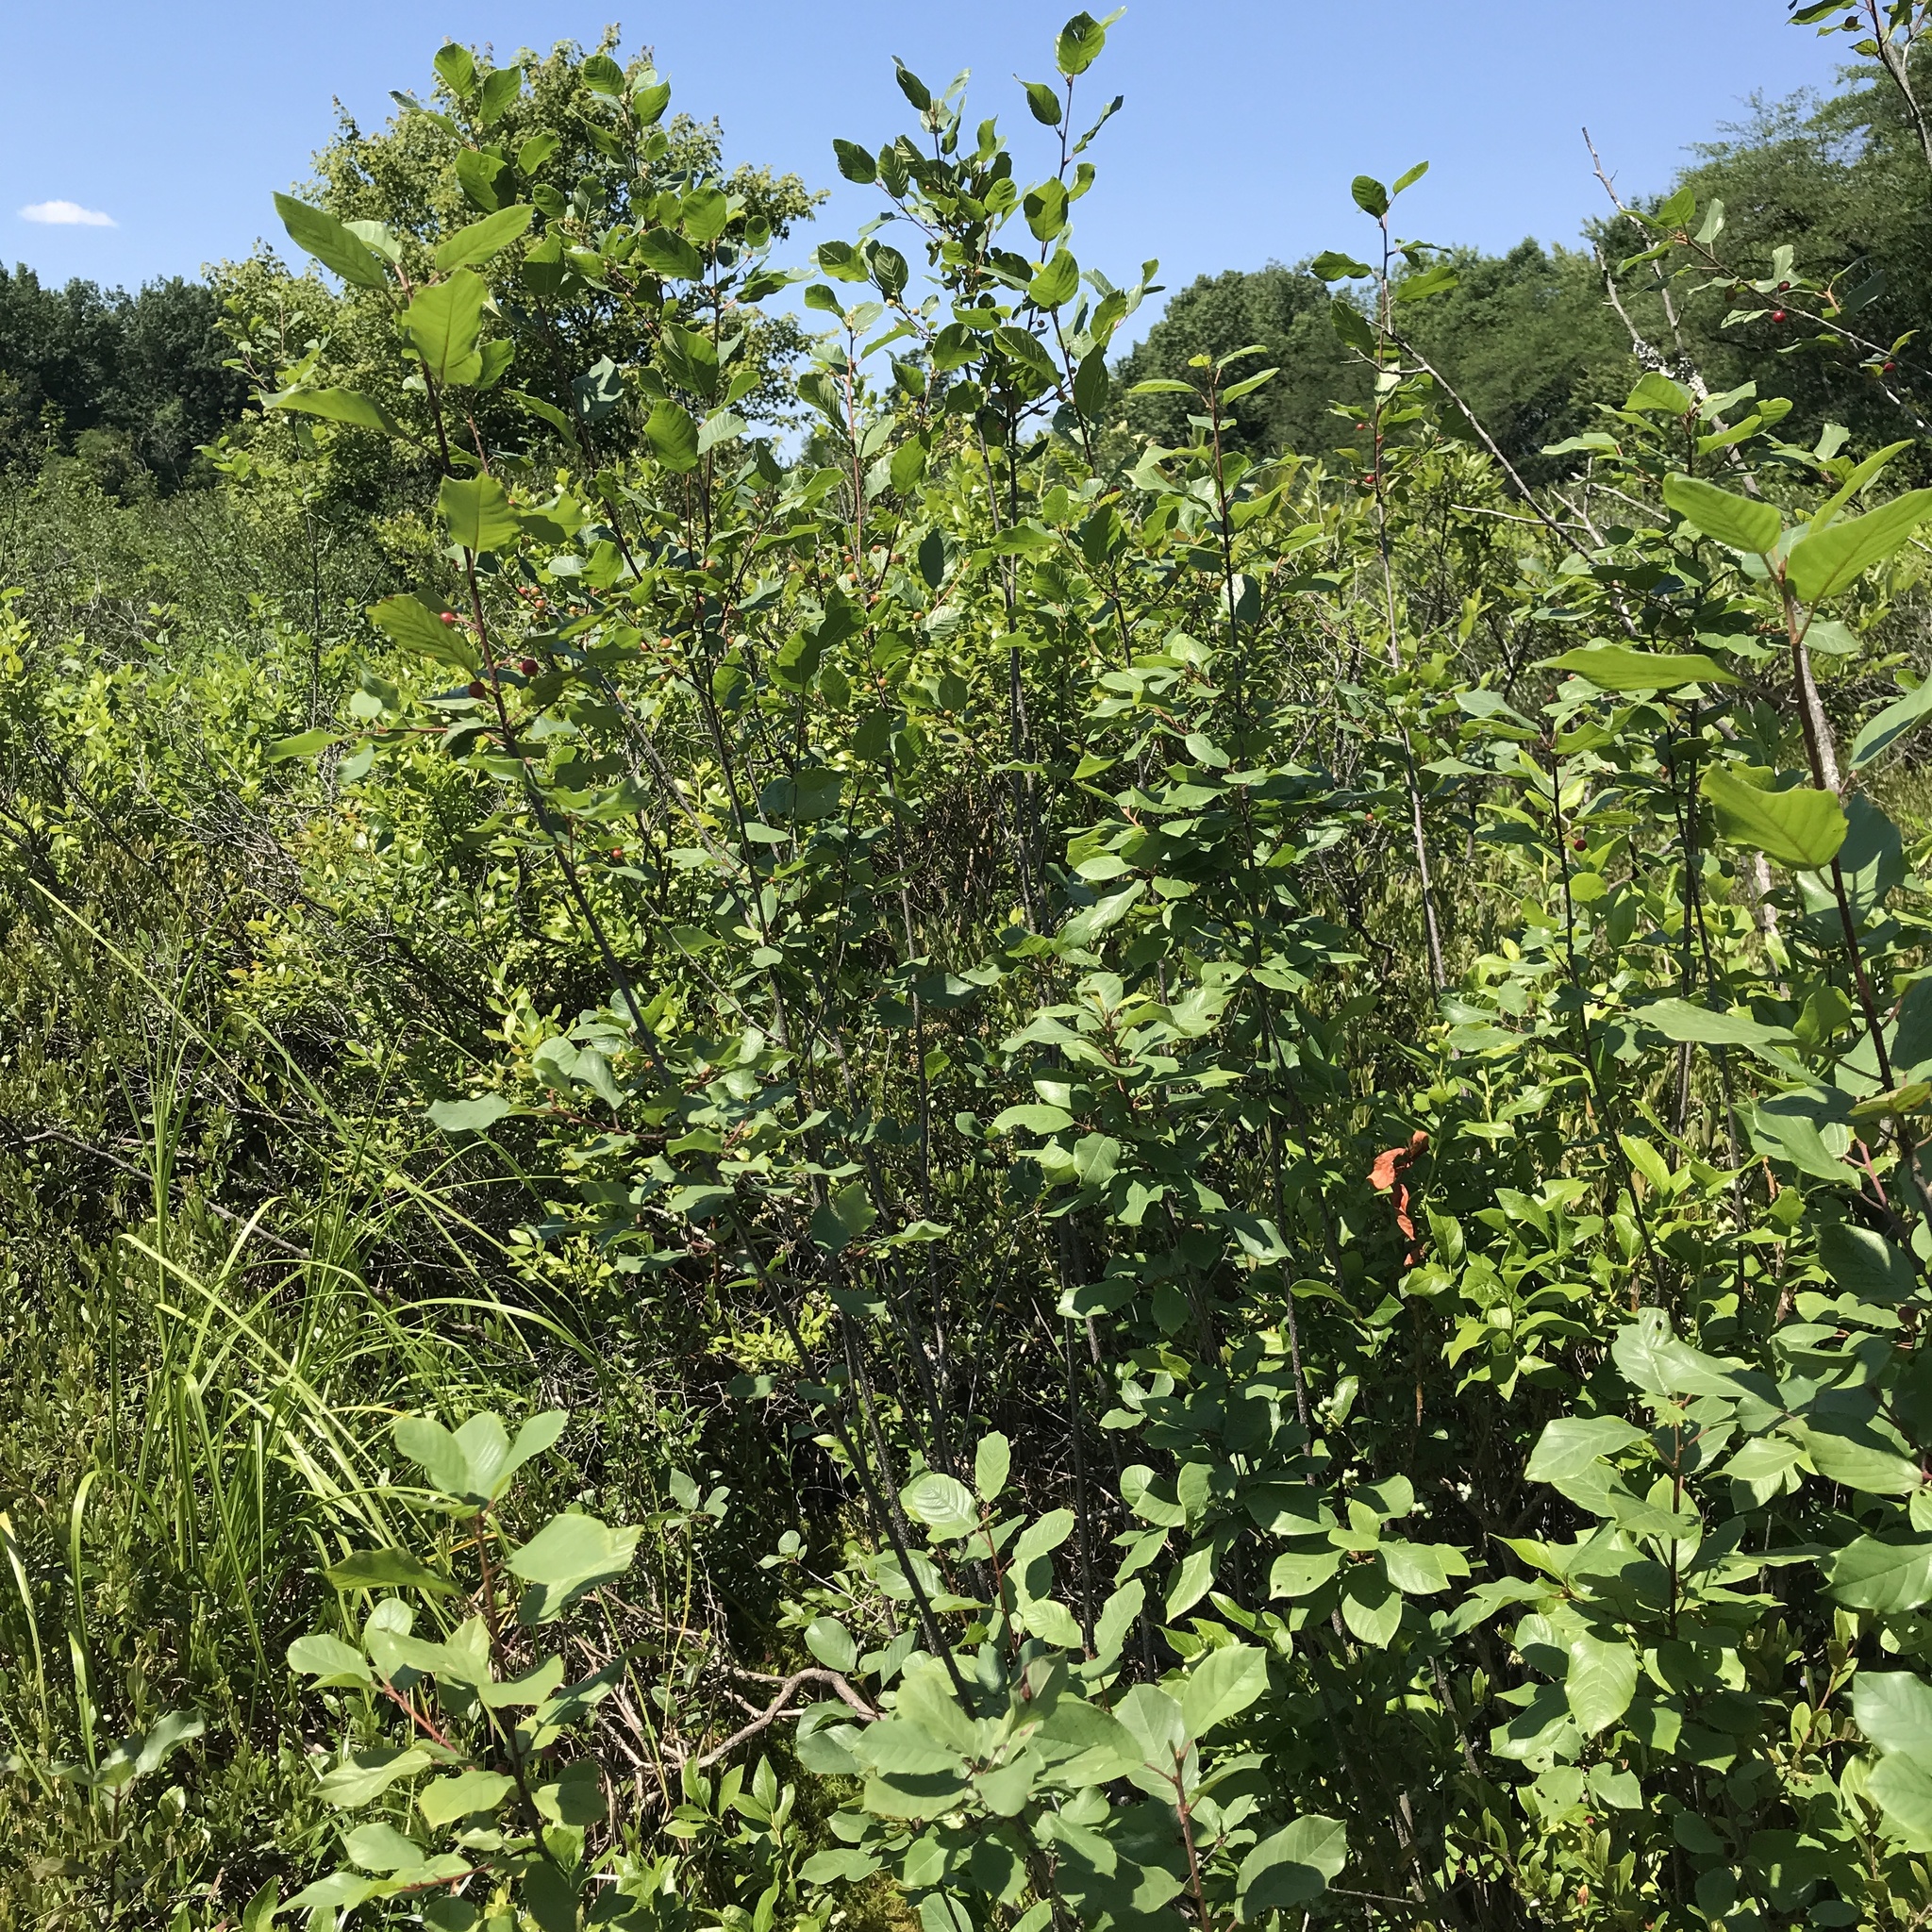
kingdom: Plantae
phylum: Tracheophyta
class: Magnoliopsida
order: Rosales
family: Rhamnaceae
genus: Frangula
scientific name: Frangula alnus
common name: Alder buckthorn
